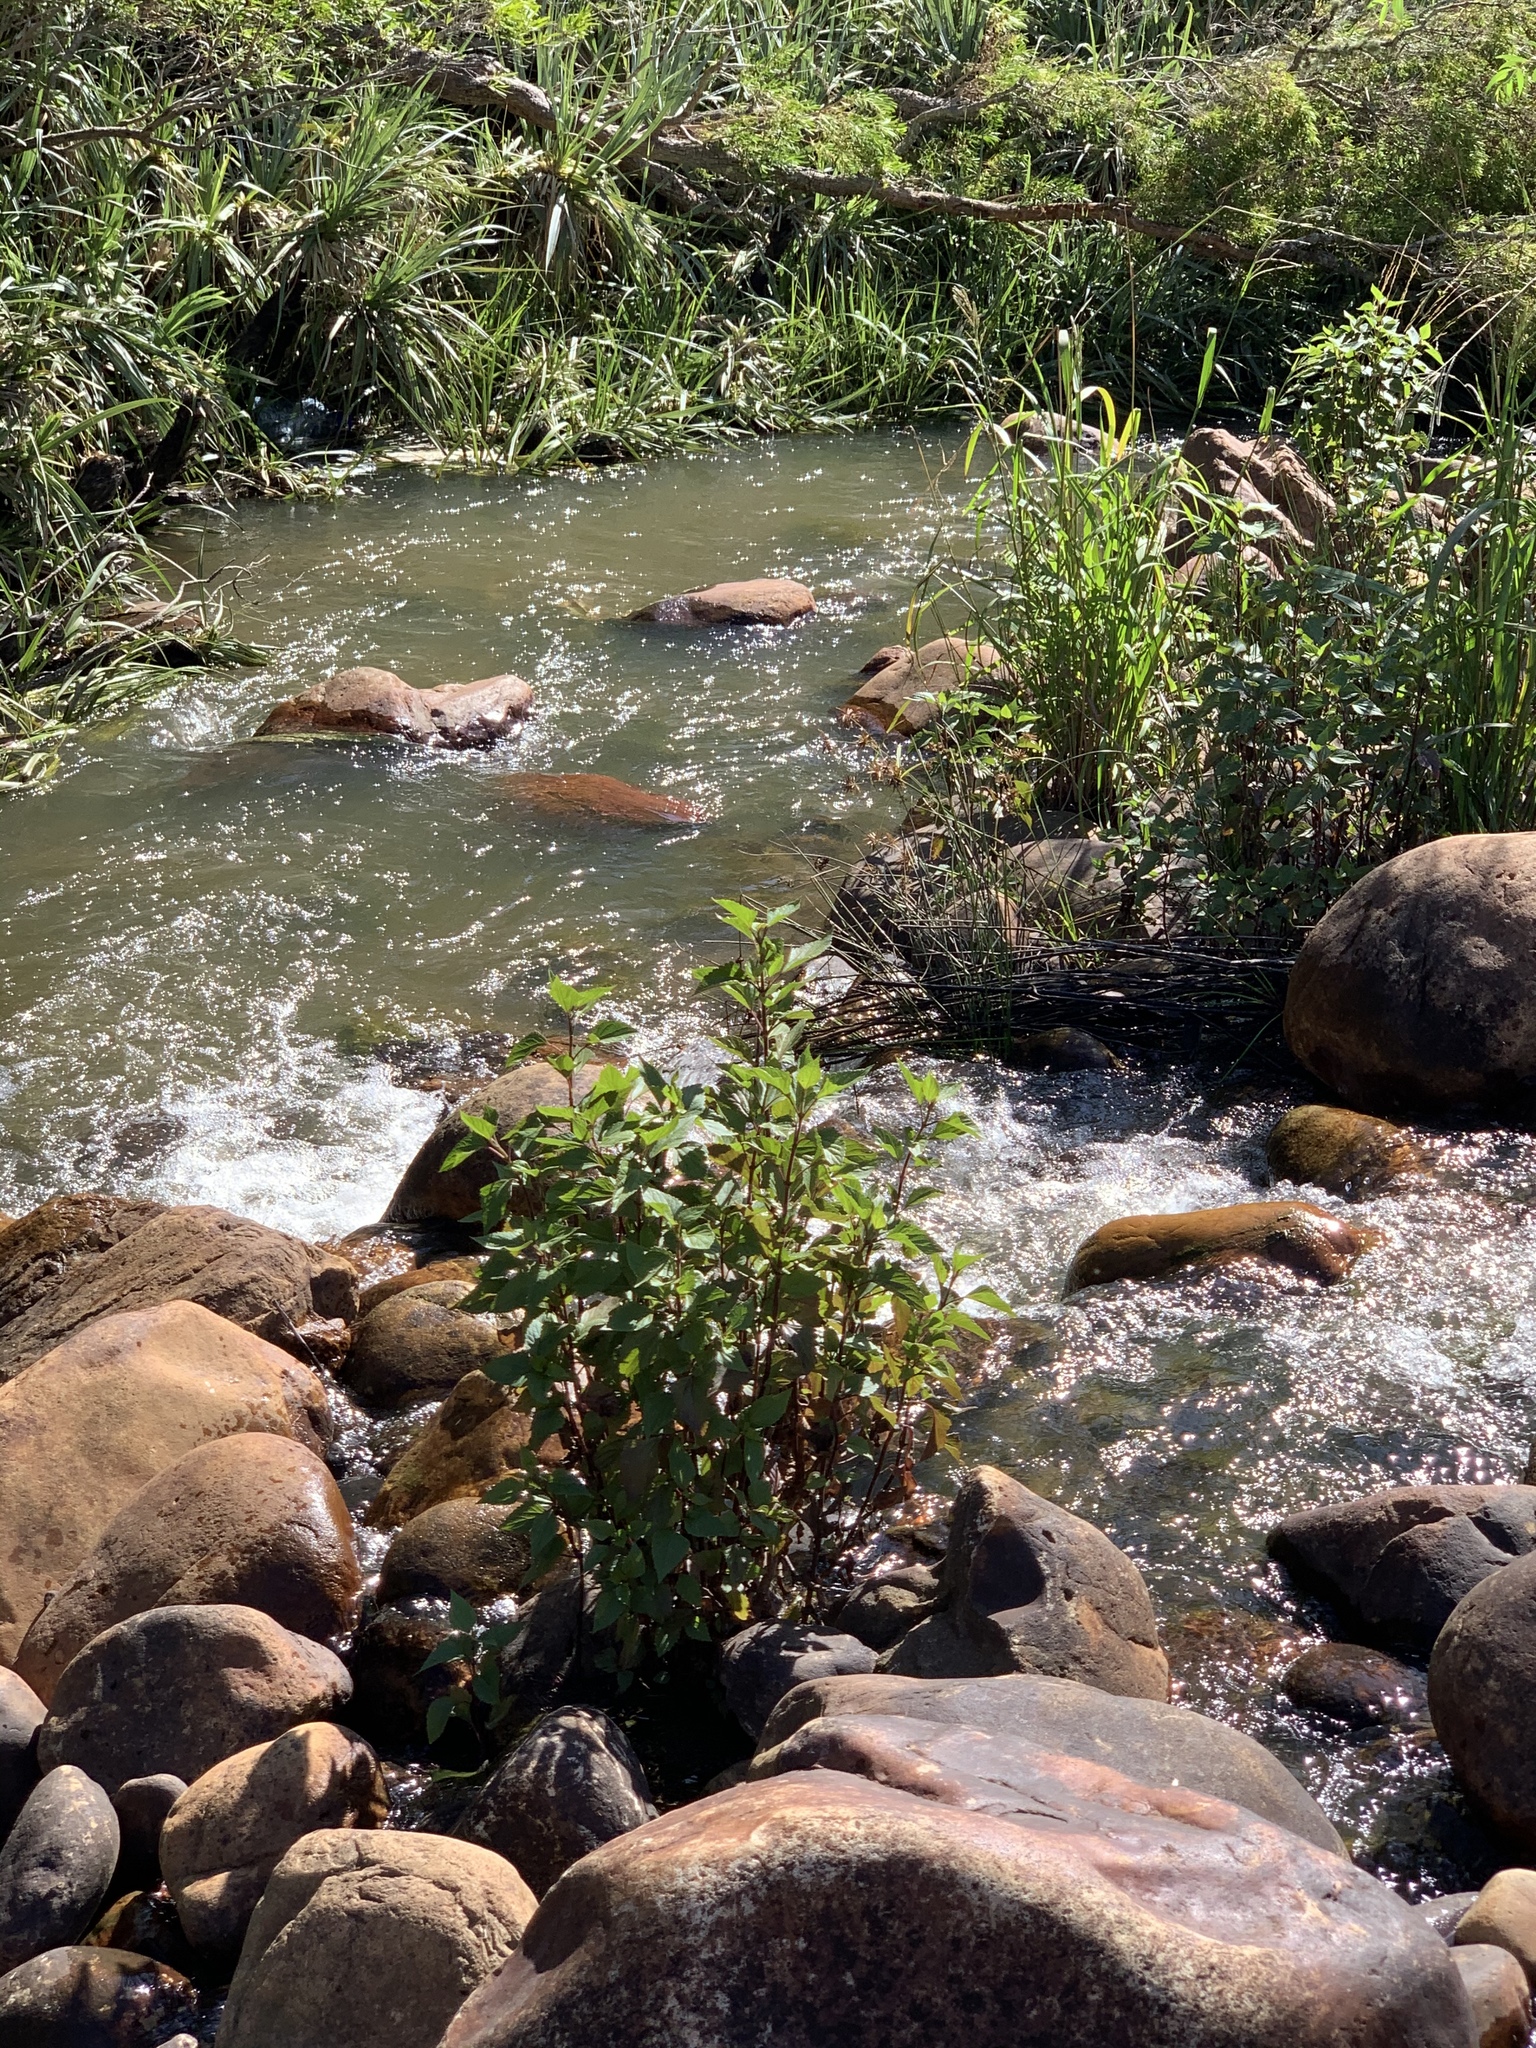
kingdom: Plantae
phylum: Tracheophyta
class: Magnoliopsida
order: Asterales
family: Asteraceae
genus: Ageratina
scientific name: Ageratina adenophora
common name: Sticky snakeroot
